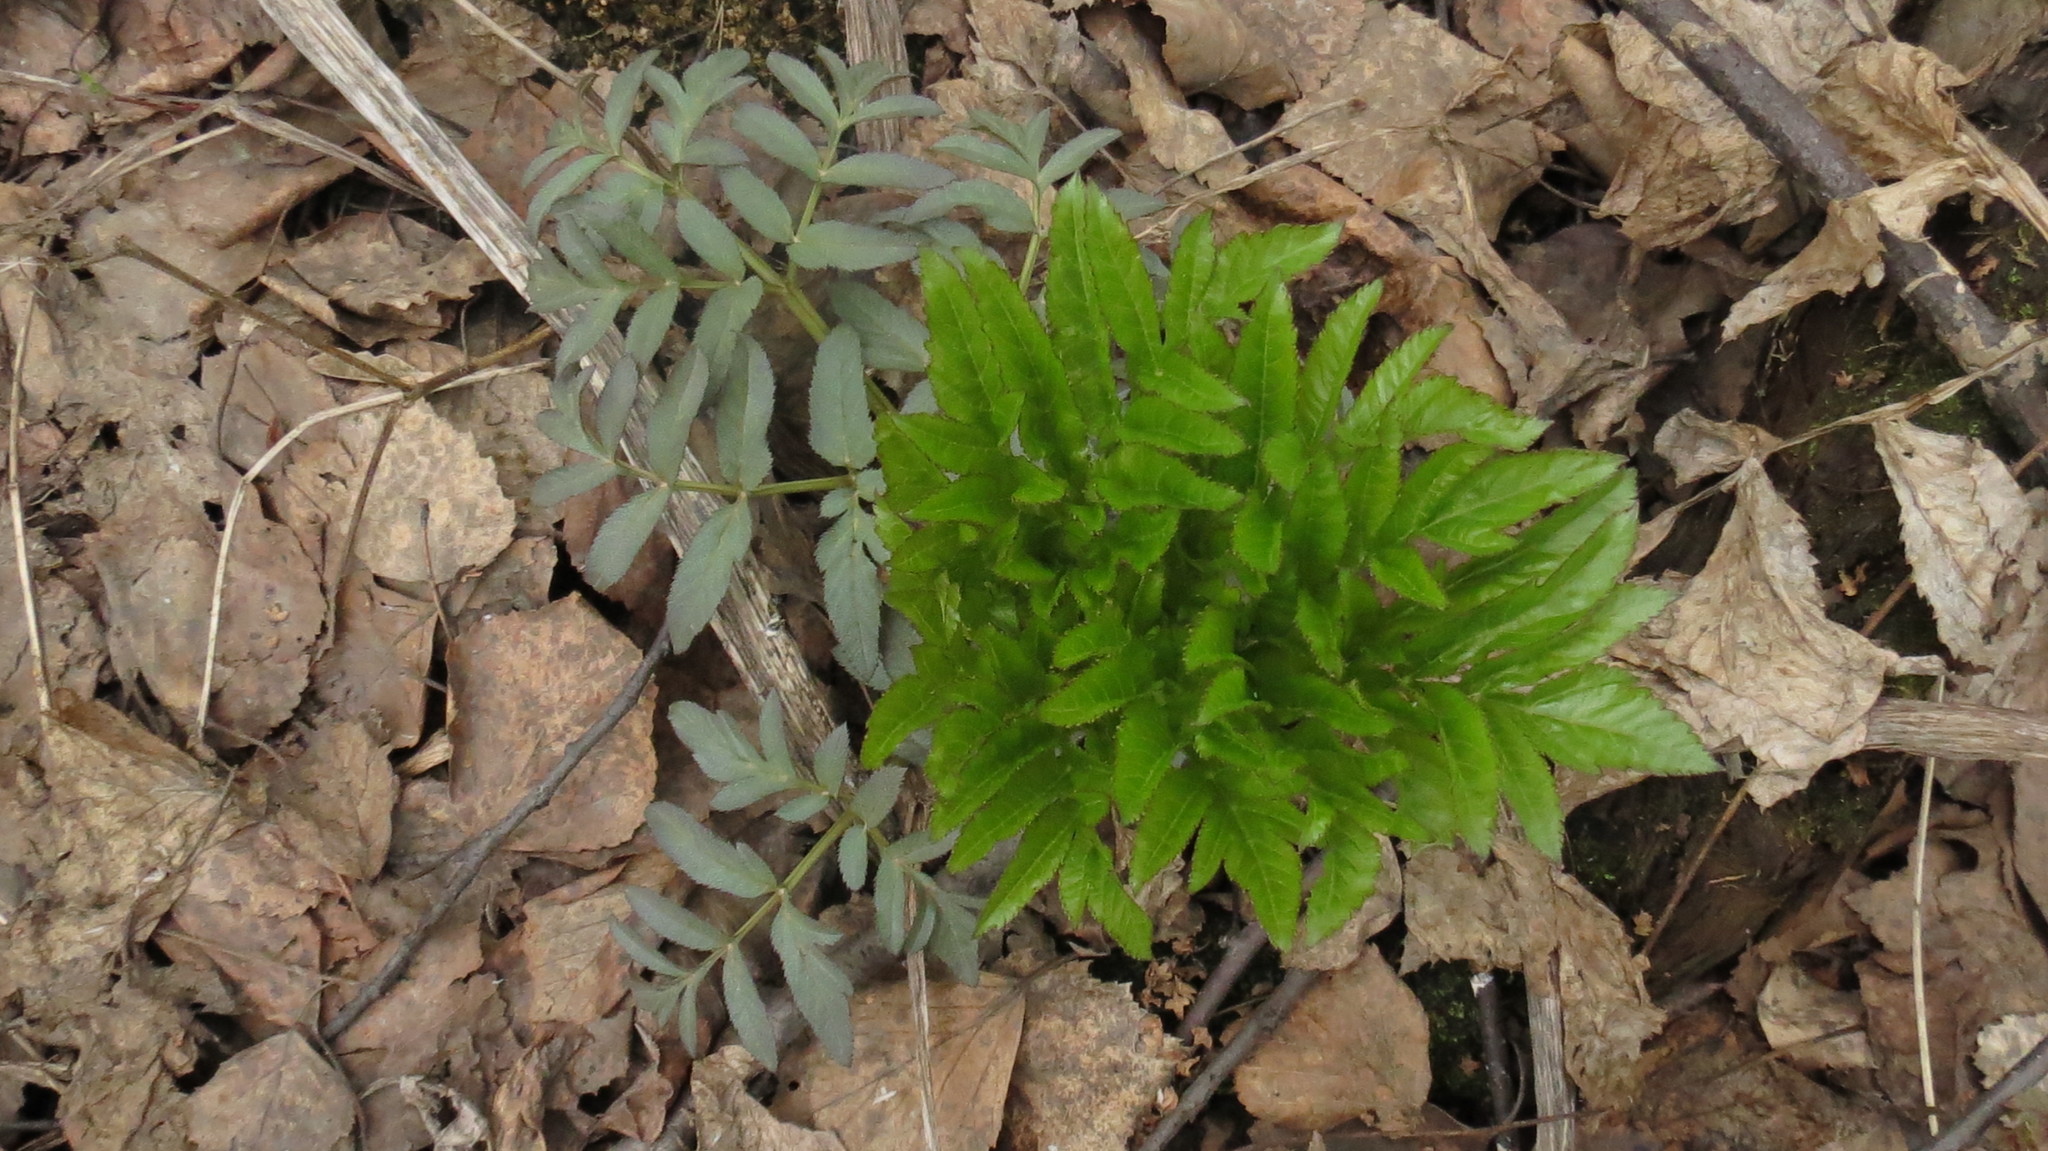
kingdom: Plantae
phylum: Tracheophyta
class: Magnoliopsida
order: Apiales
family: Apiaceae
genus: Angelica
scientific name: Angelica decurrens
